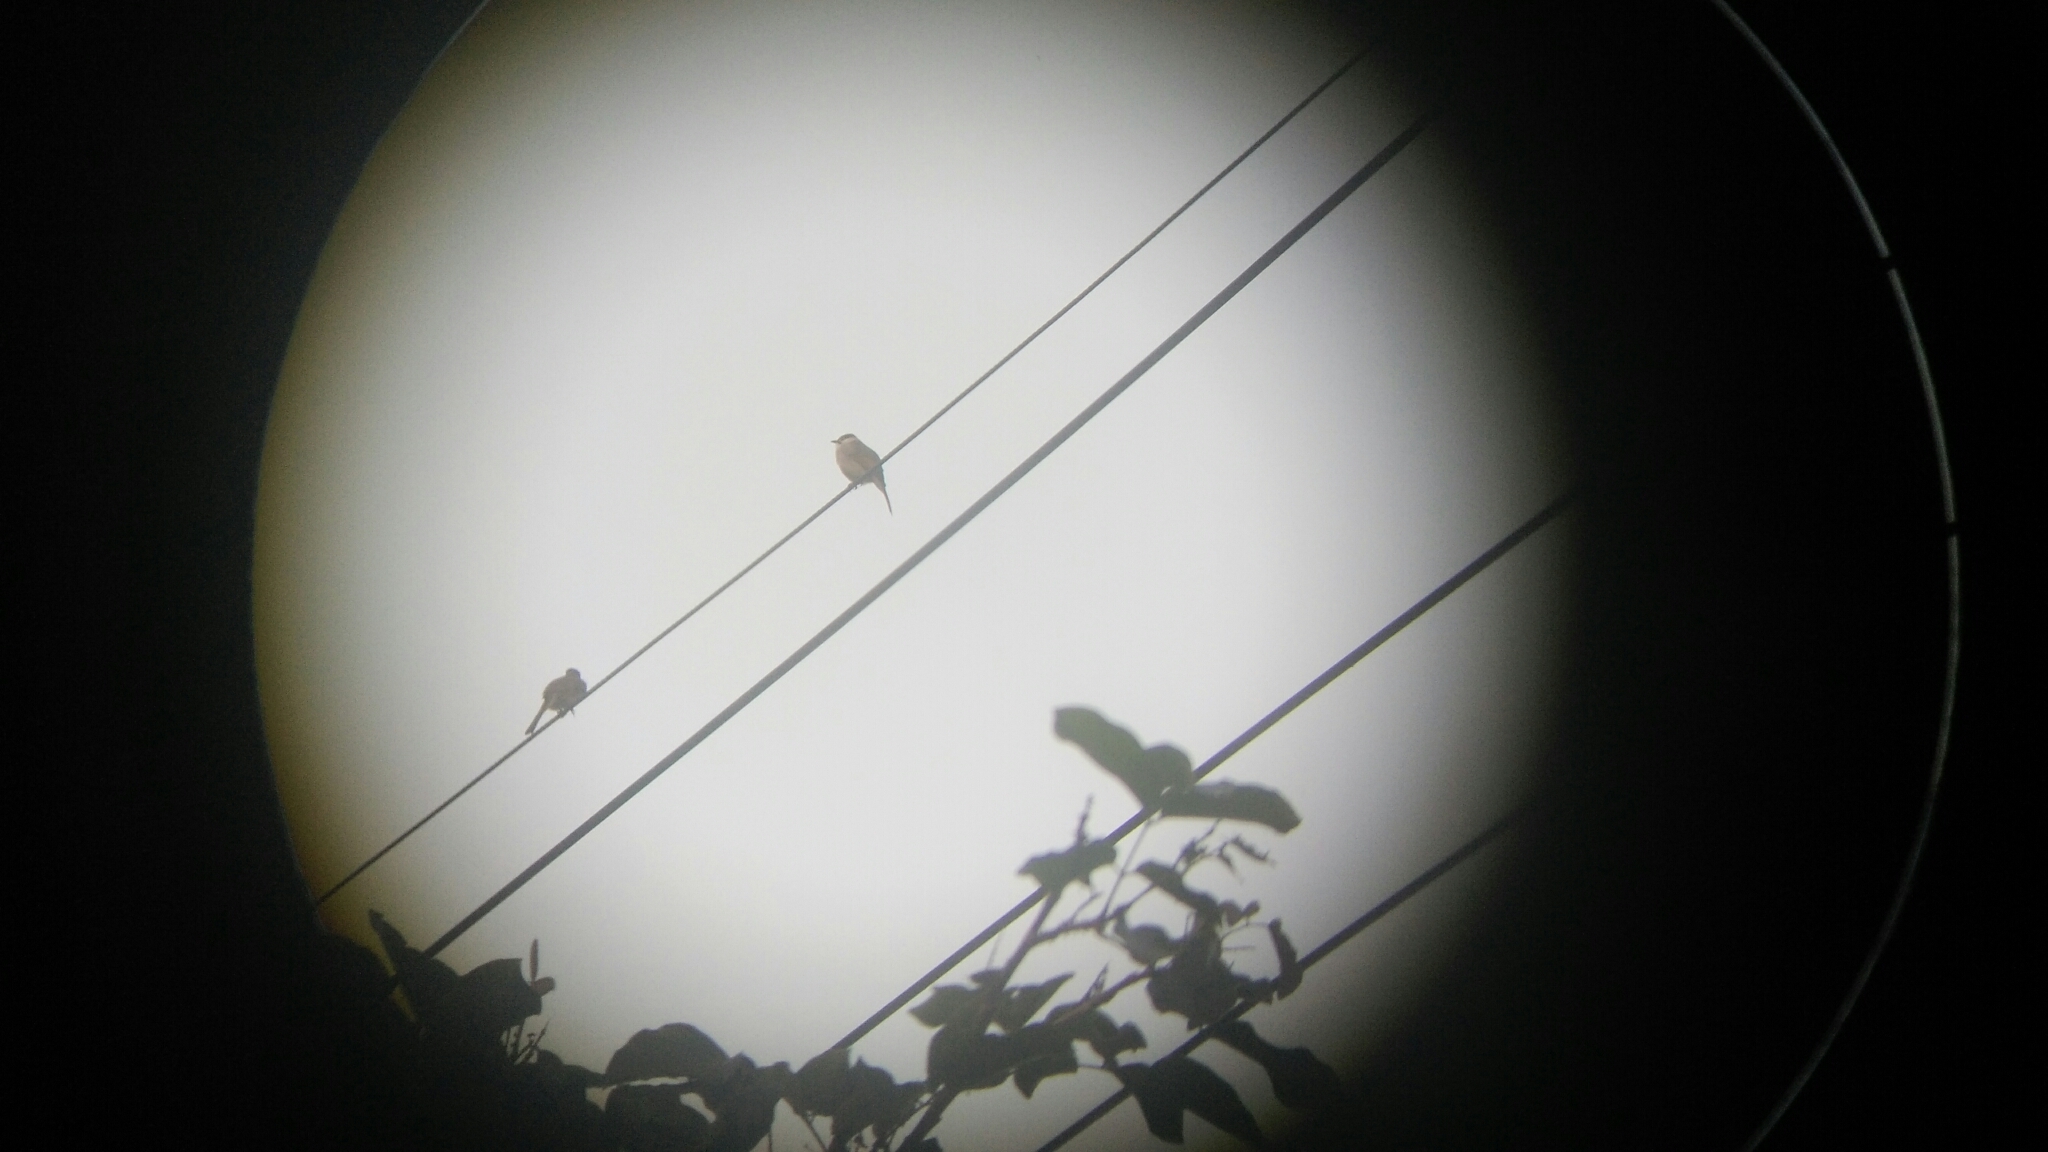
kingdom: Animalia
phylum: Chordata
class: Aves
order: Passeriformes
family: Pycnonotidae
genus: Pycnonotus
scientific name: Pycnonotus taivanus
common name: Styan's bulbul
